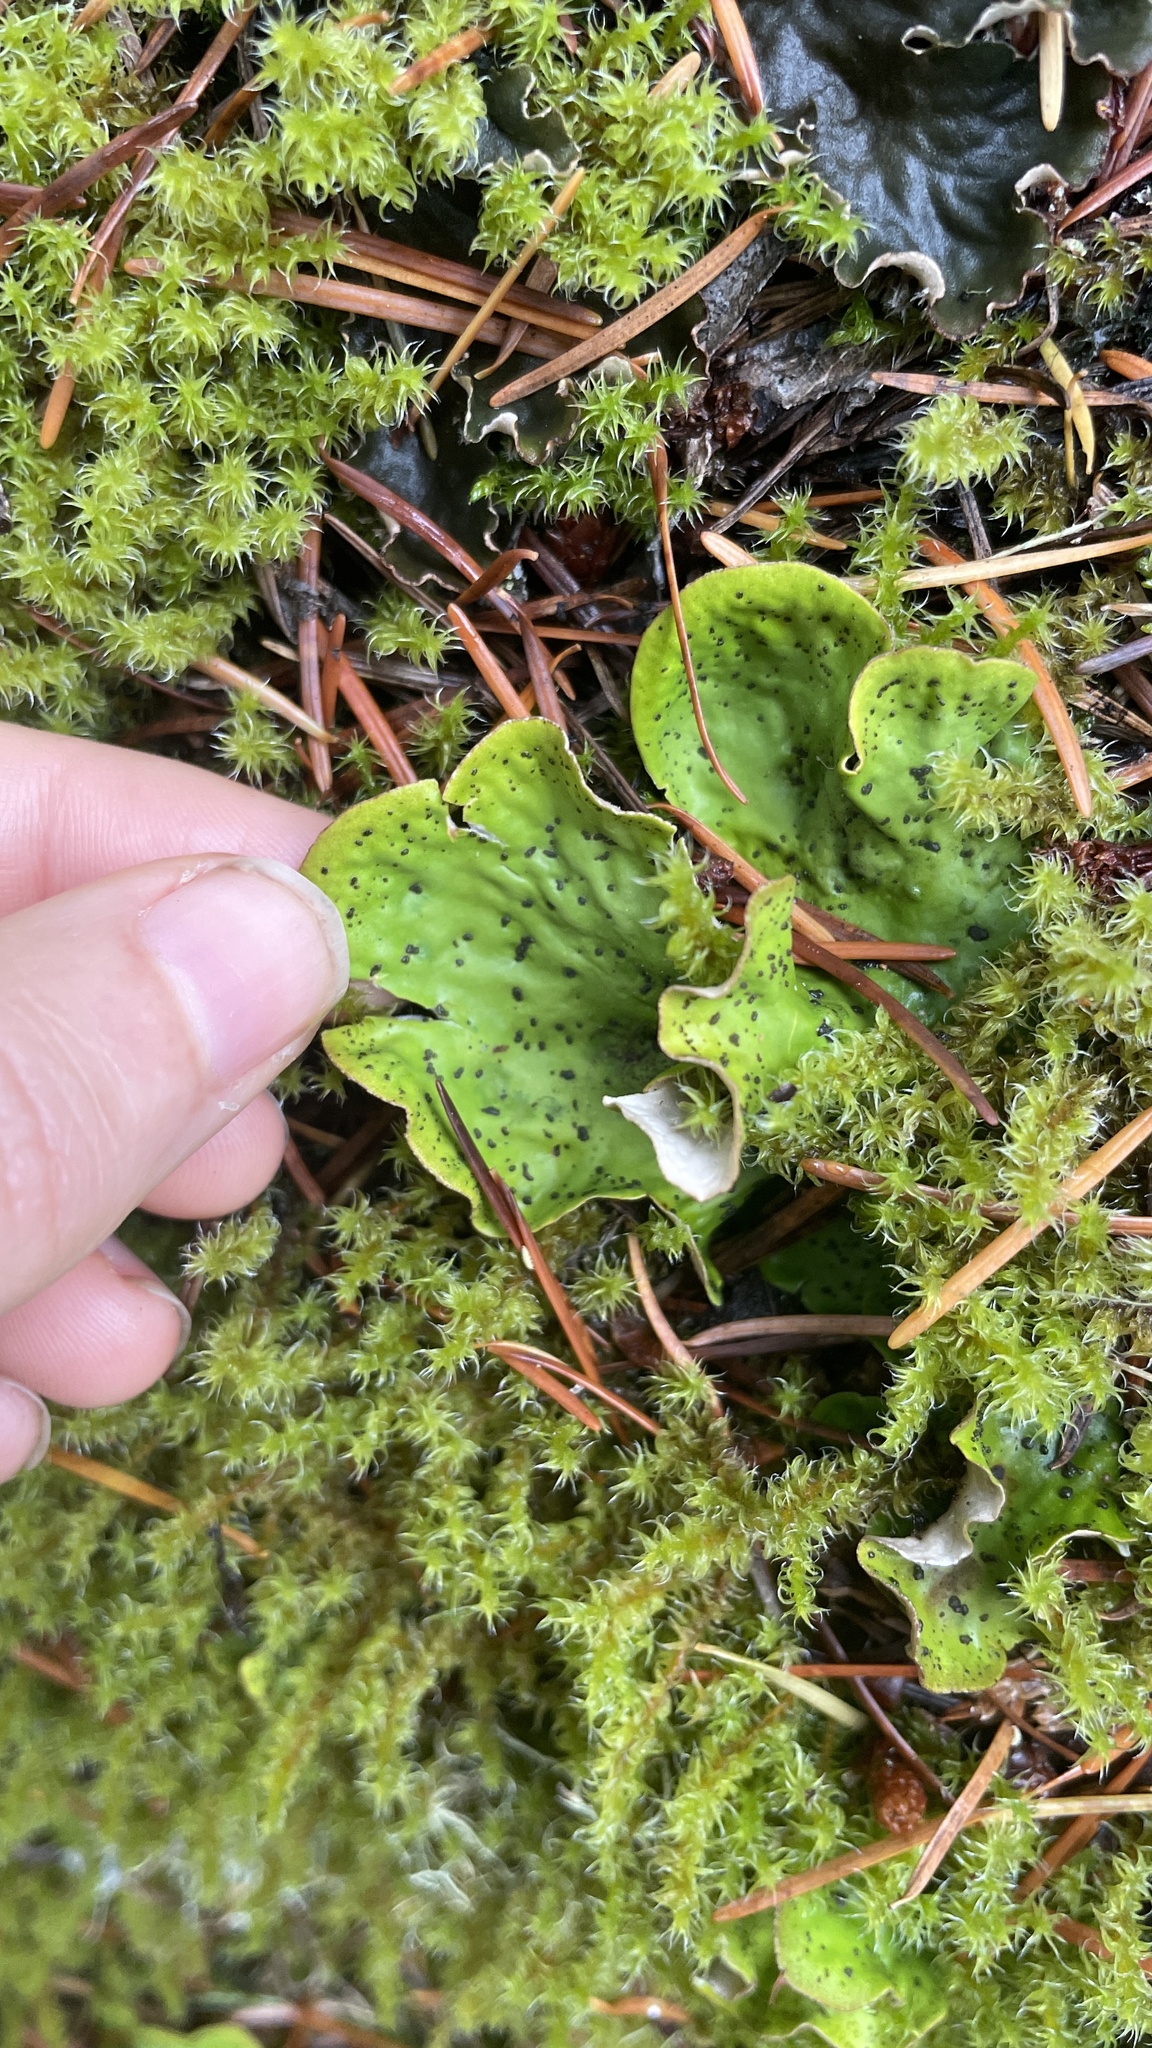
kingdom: Fungi
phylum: Ascomycota
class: Lecanoromycetes
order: Peltigerales
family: Peltigeraceae
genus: Peltigera
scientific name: Peltigera aphthosa
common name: Common freckle pelt lichen
